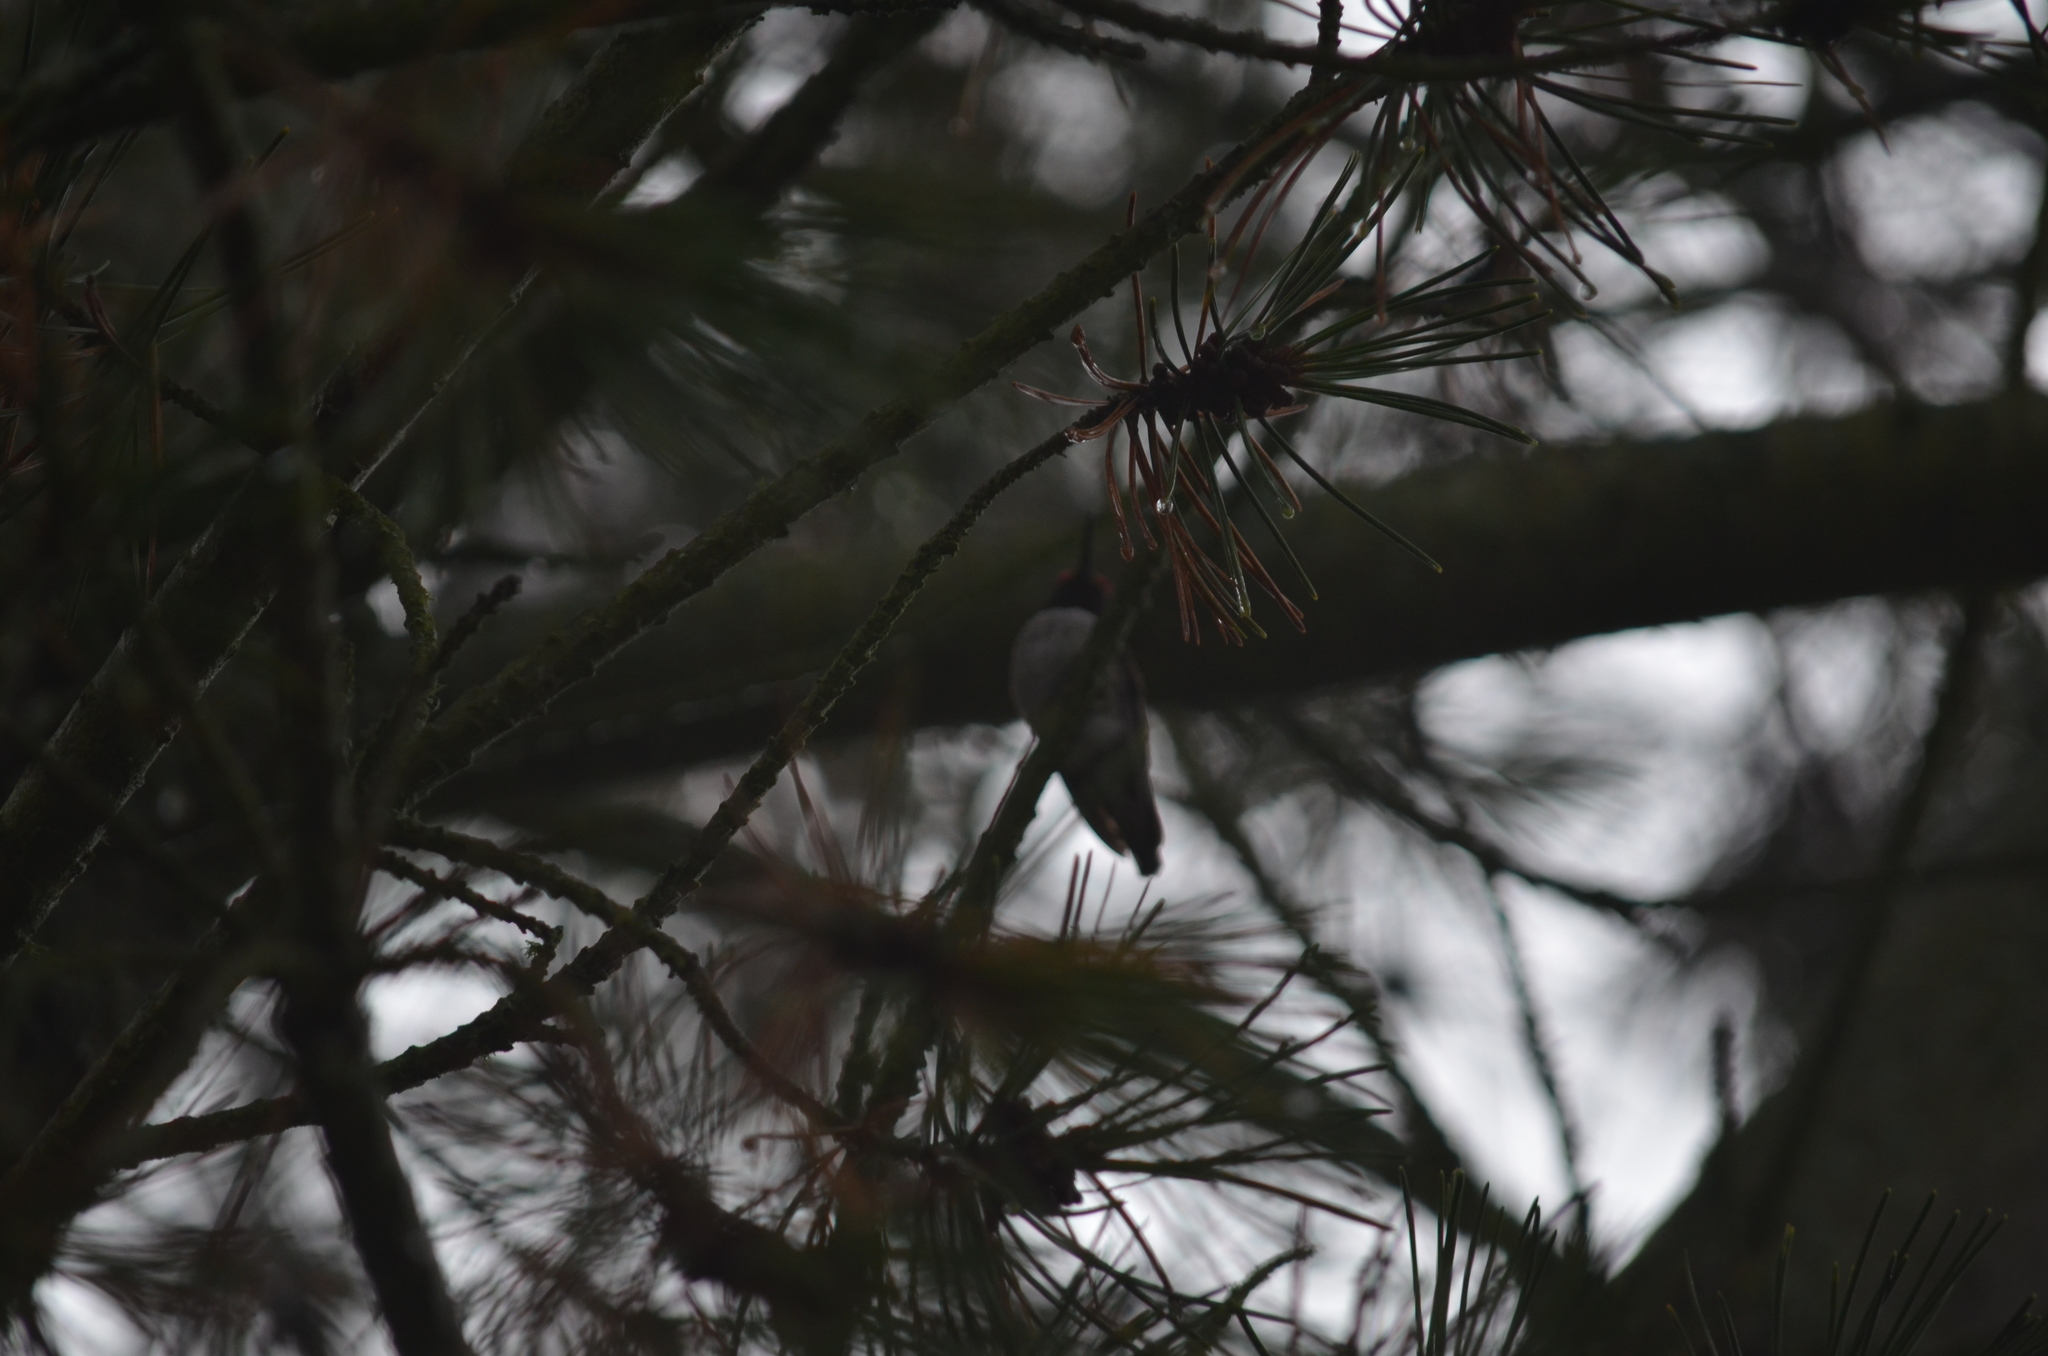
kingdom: Animalia
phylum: Chordata
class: Aves
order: Apodiformes
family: Trochilidae
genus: Calypte
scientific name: Calypte anna
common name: Anna's hummingbird
